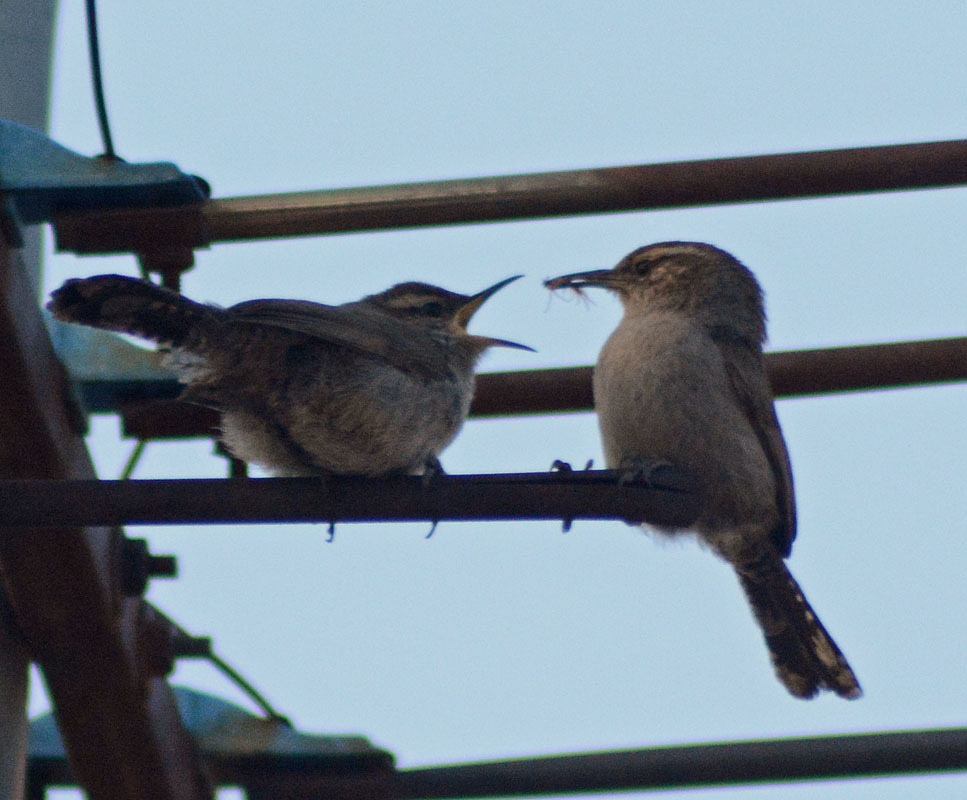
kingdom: Animalia
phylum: Chordata
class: Aves
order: Passeriformes
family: Troglodytidae
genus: Thryomanes
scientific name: Thryomanes bewickii
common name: Bewick's wren
